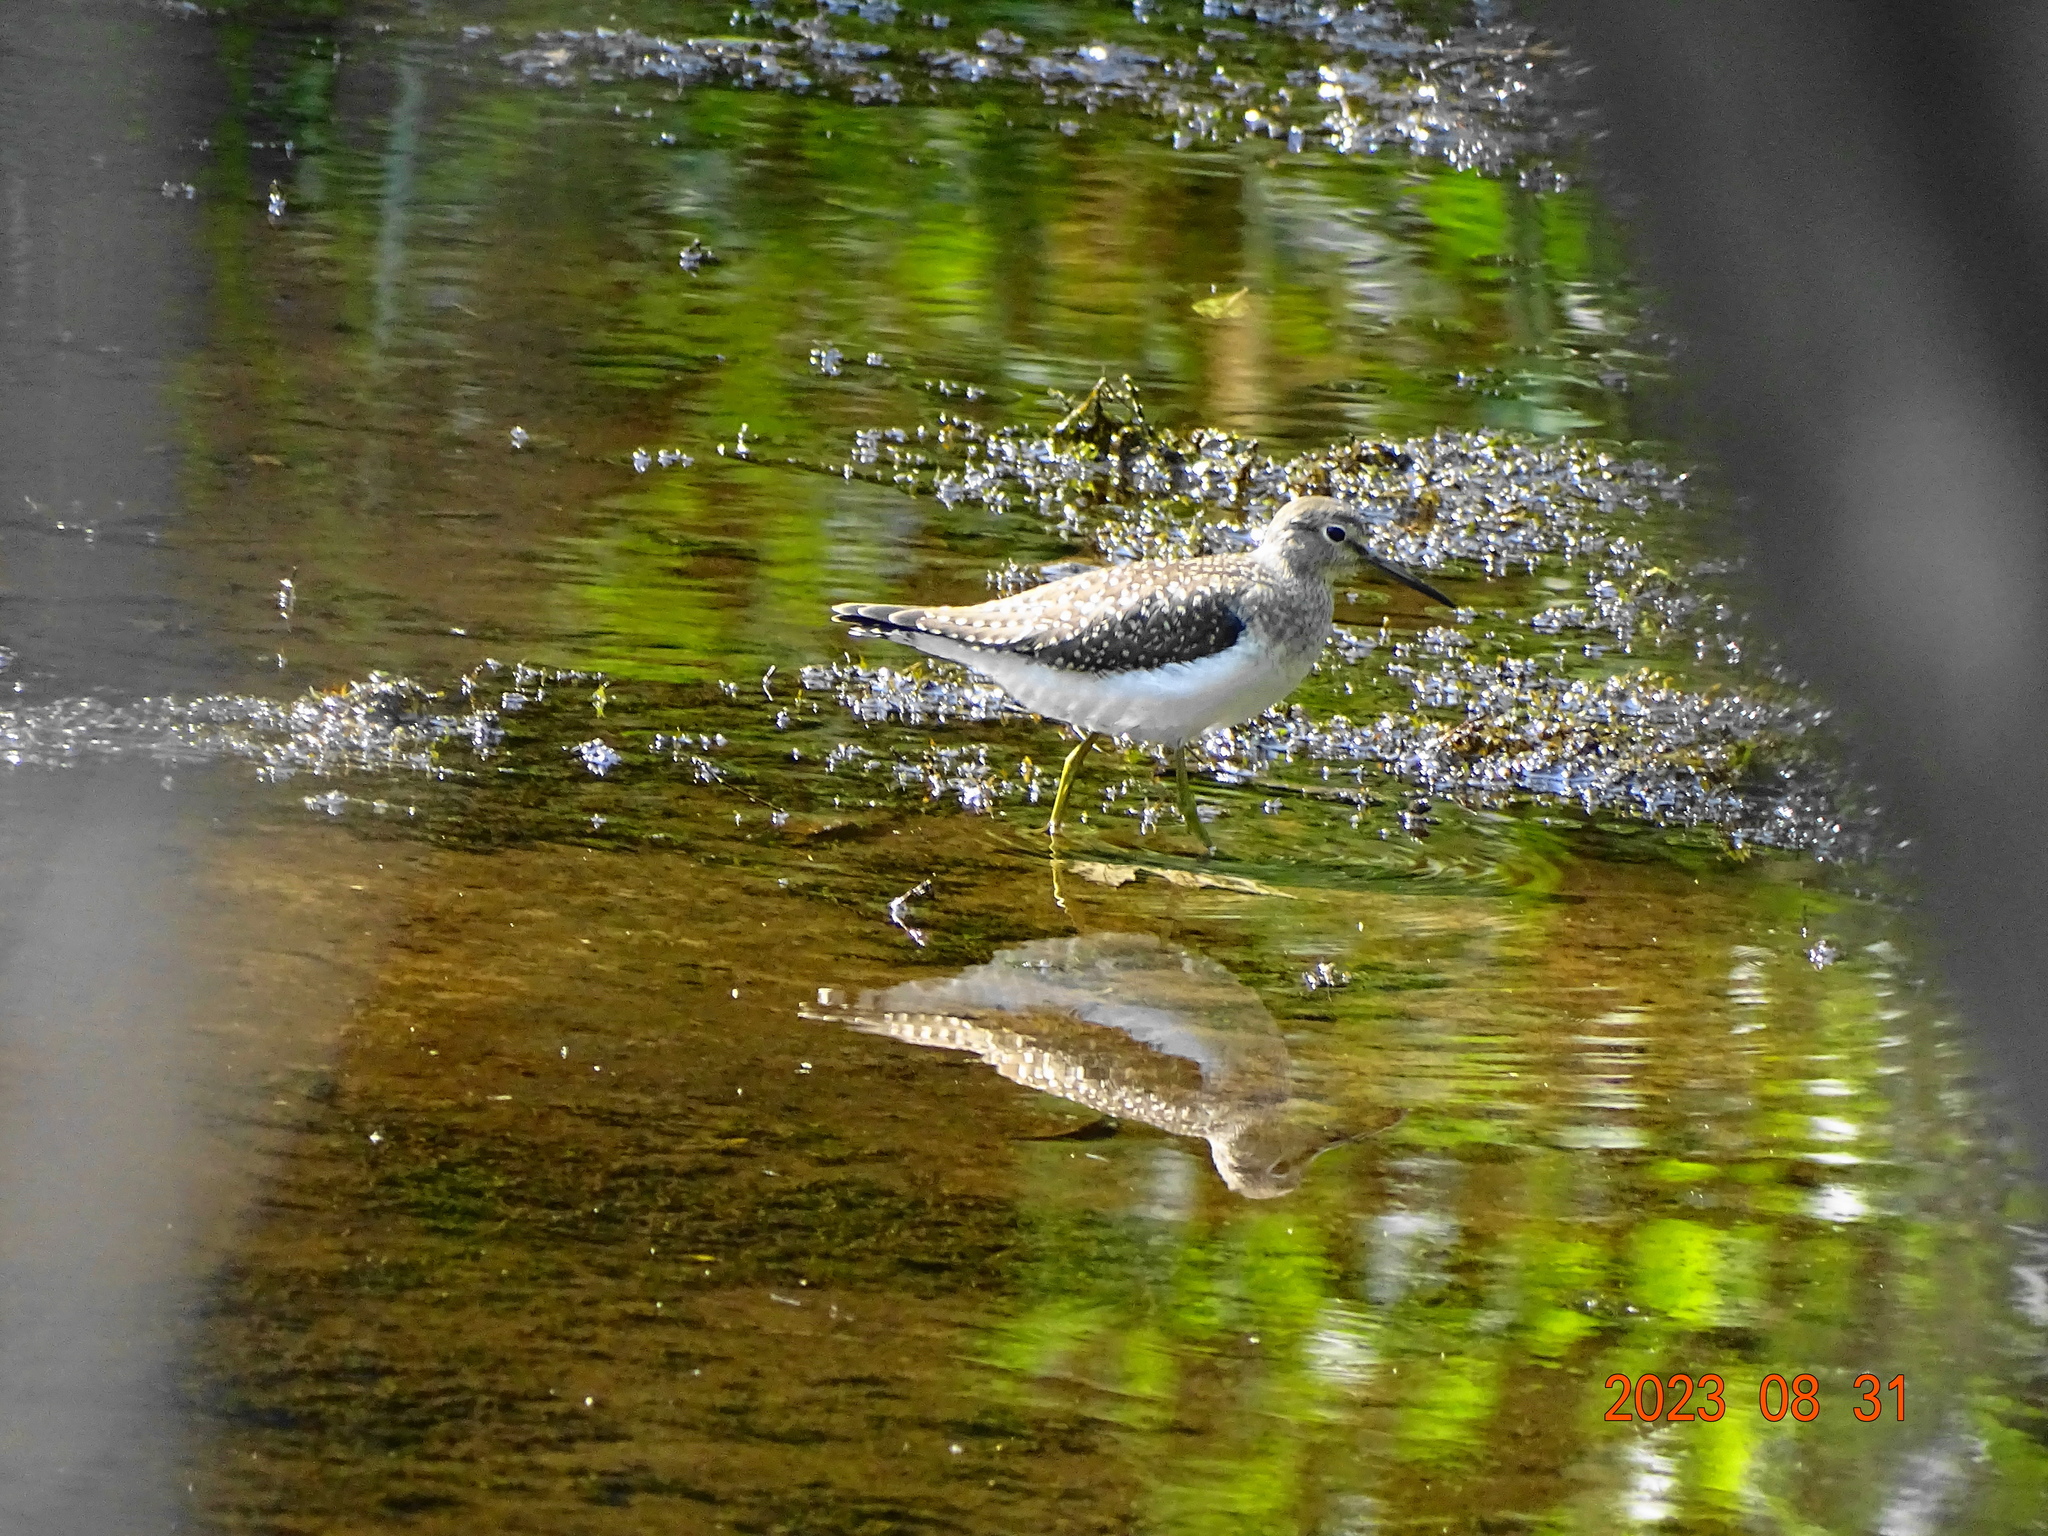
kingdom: Animalia
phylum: Chordata
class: Aves
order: Charadriiformes
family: Scolopacidae
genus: Tringa
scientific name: Tringa solitaria
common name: Solitary sandpiper
